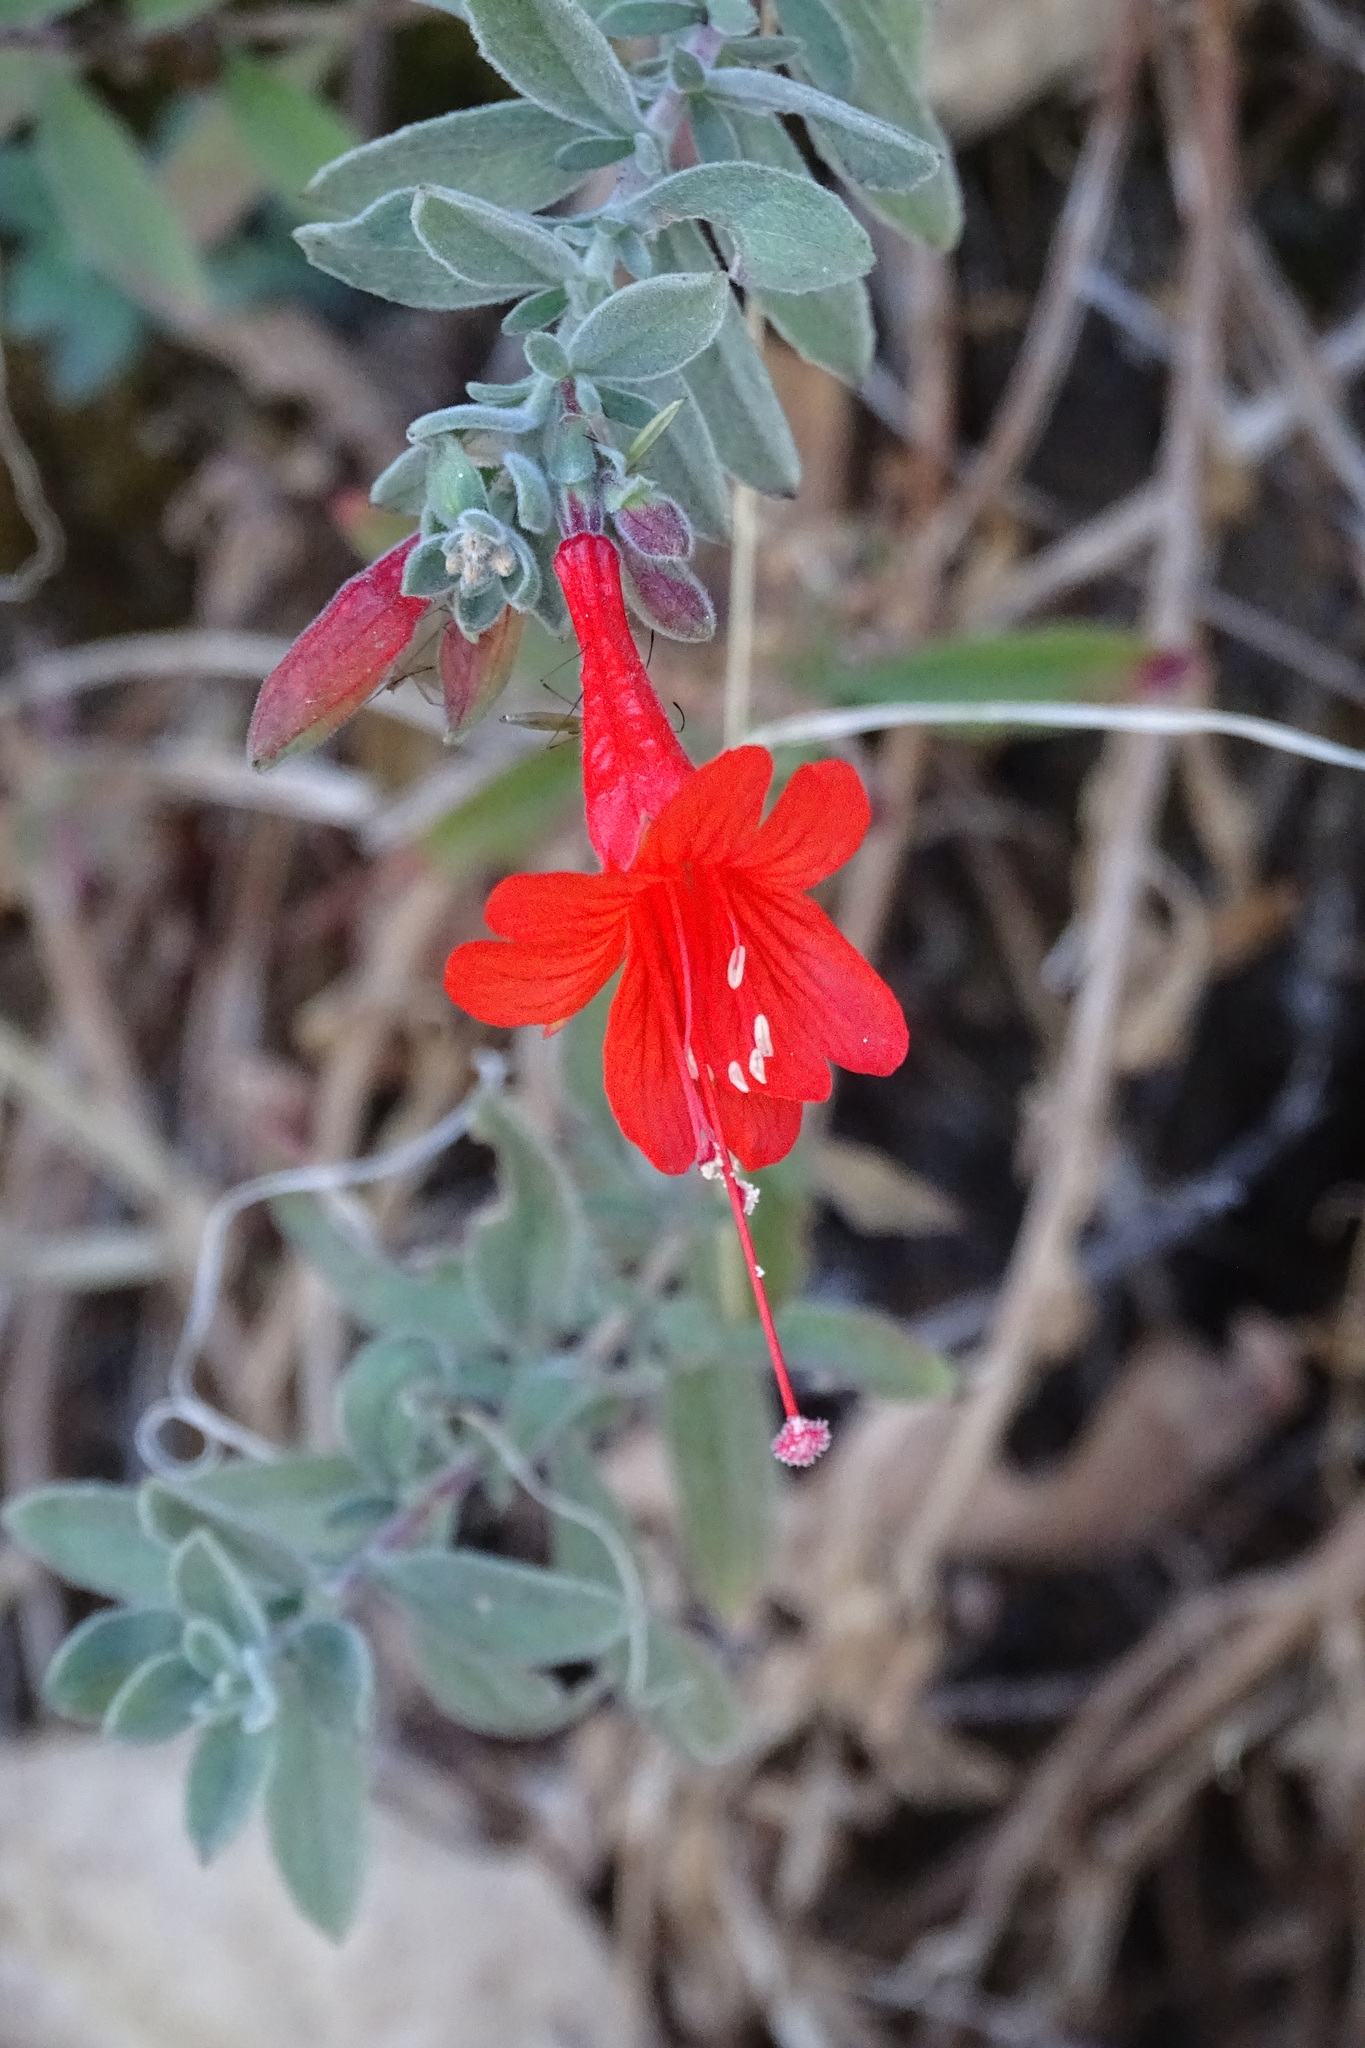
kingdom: Plantae
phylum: Tracheophyta
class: Magnoliopsida
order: Myrtales
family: Onagraceae
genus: Epilobium
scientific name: Epilobium canum
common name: California-fuchsia
